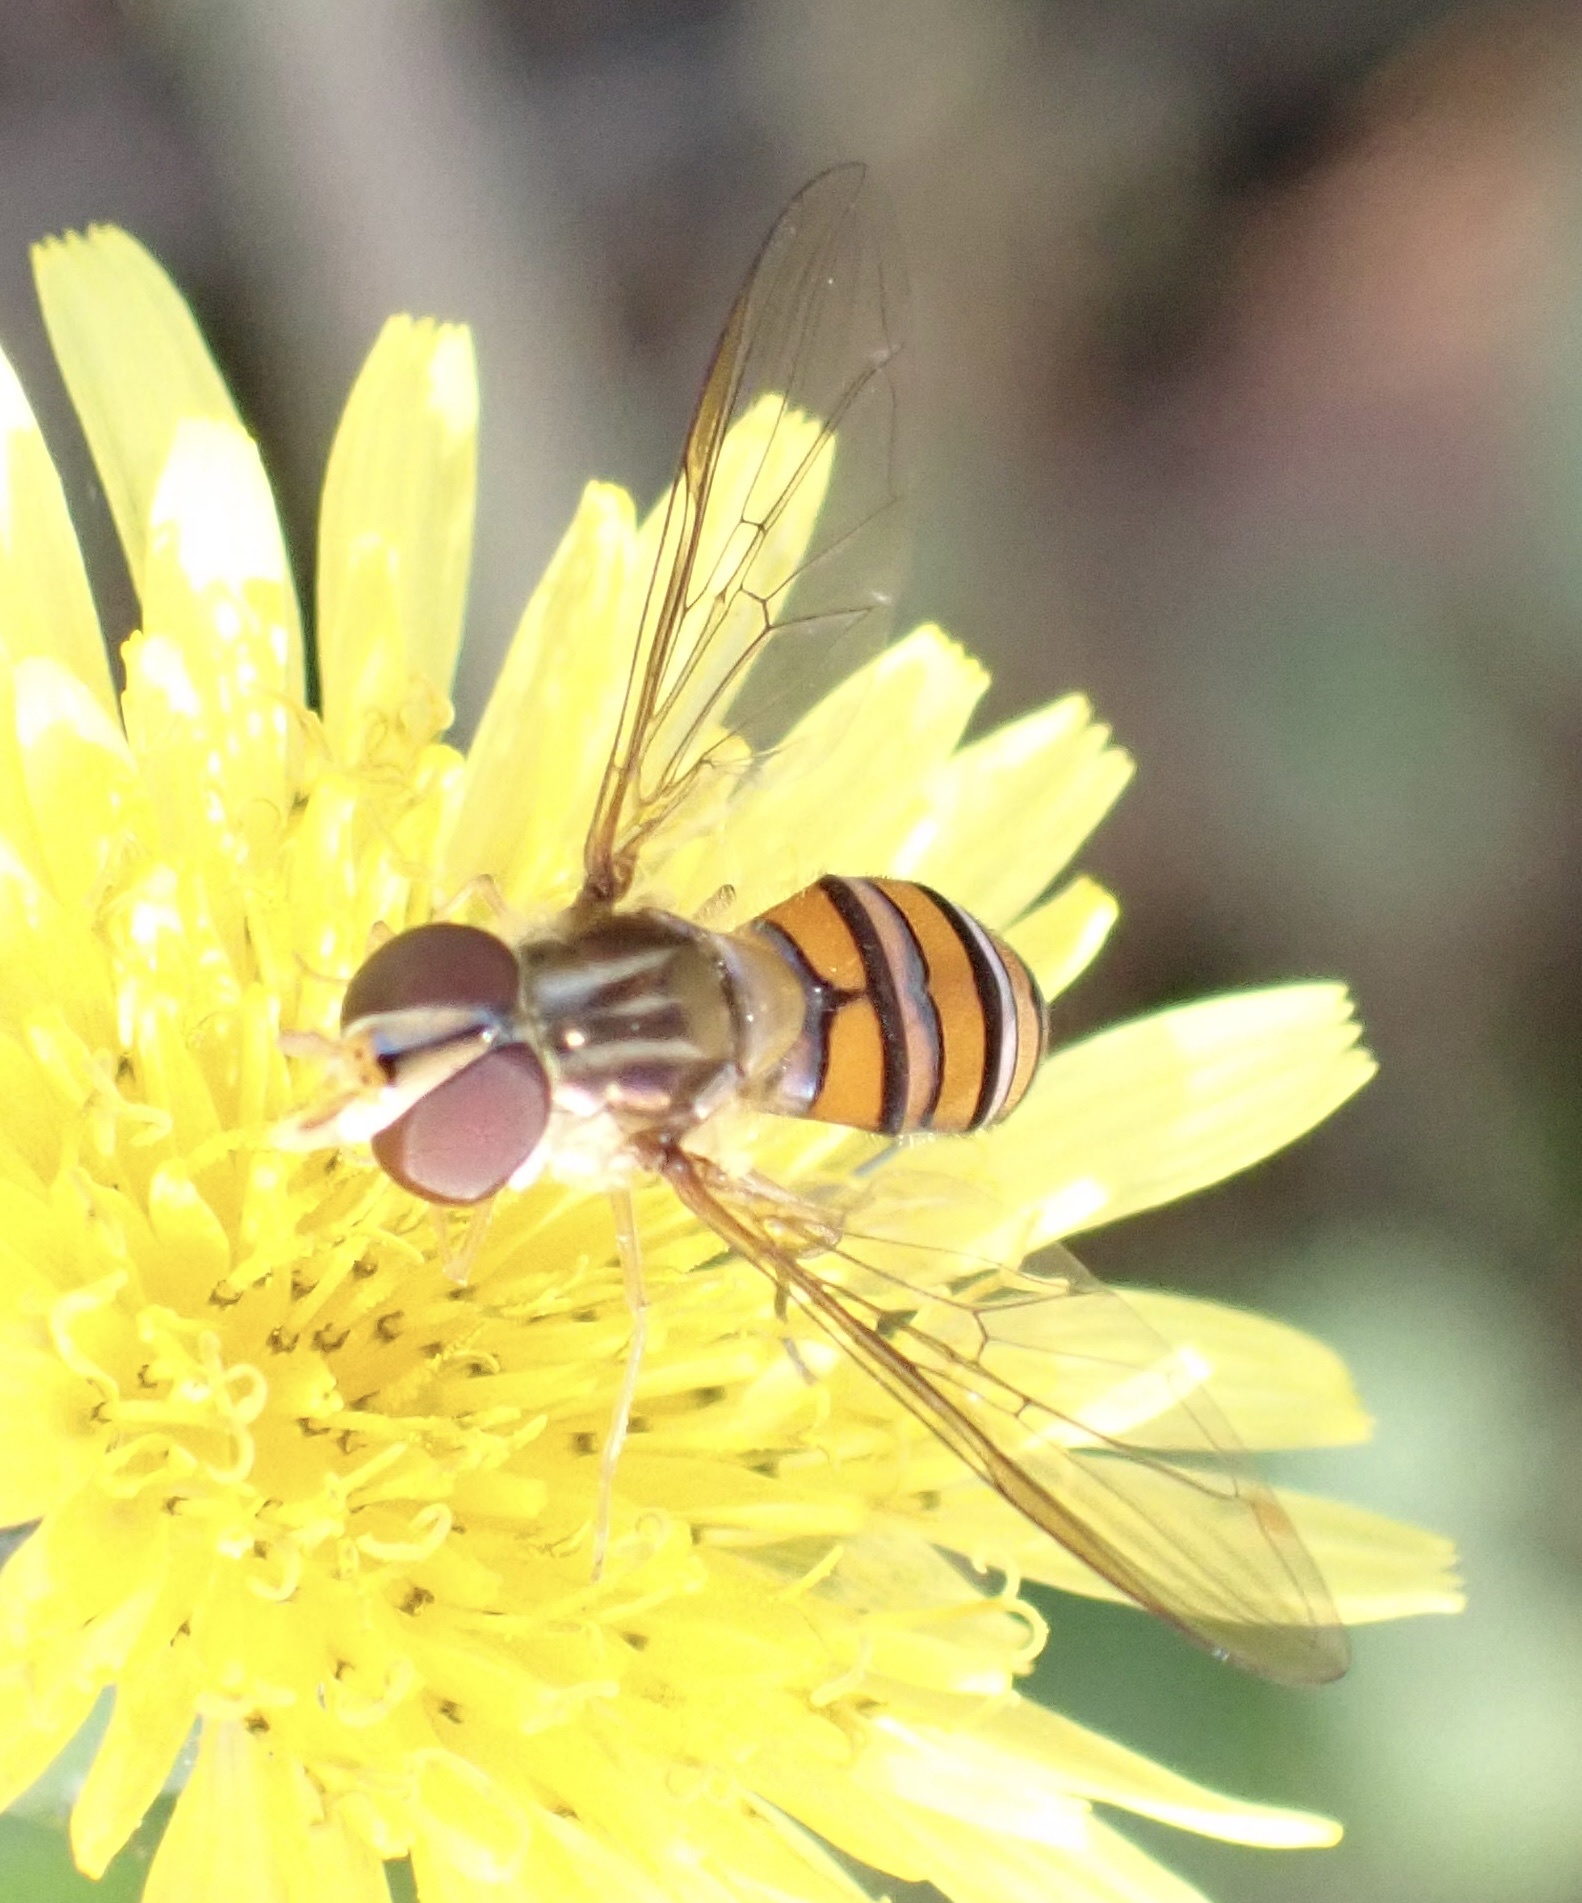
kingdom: Animalia
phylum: Arthropoda
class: Insecta
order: Diptera
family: Syrphidae
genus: Episyrphus
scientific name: Episyrphus viridaureus
